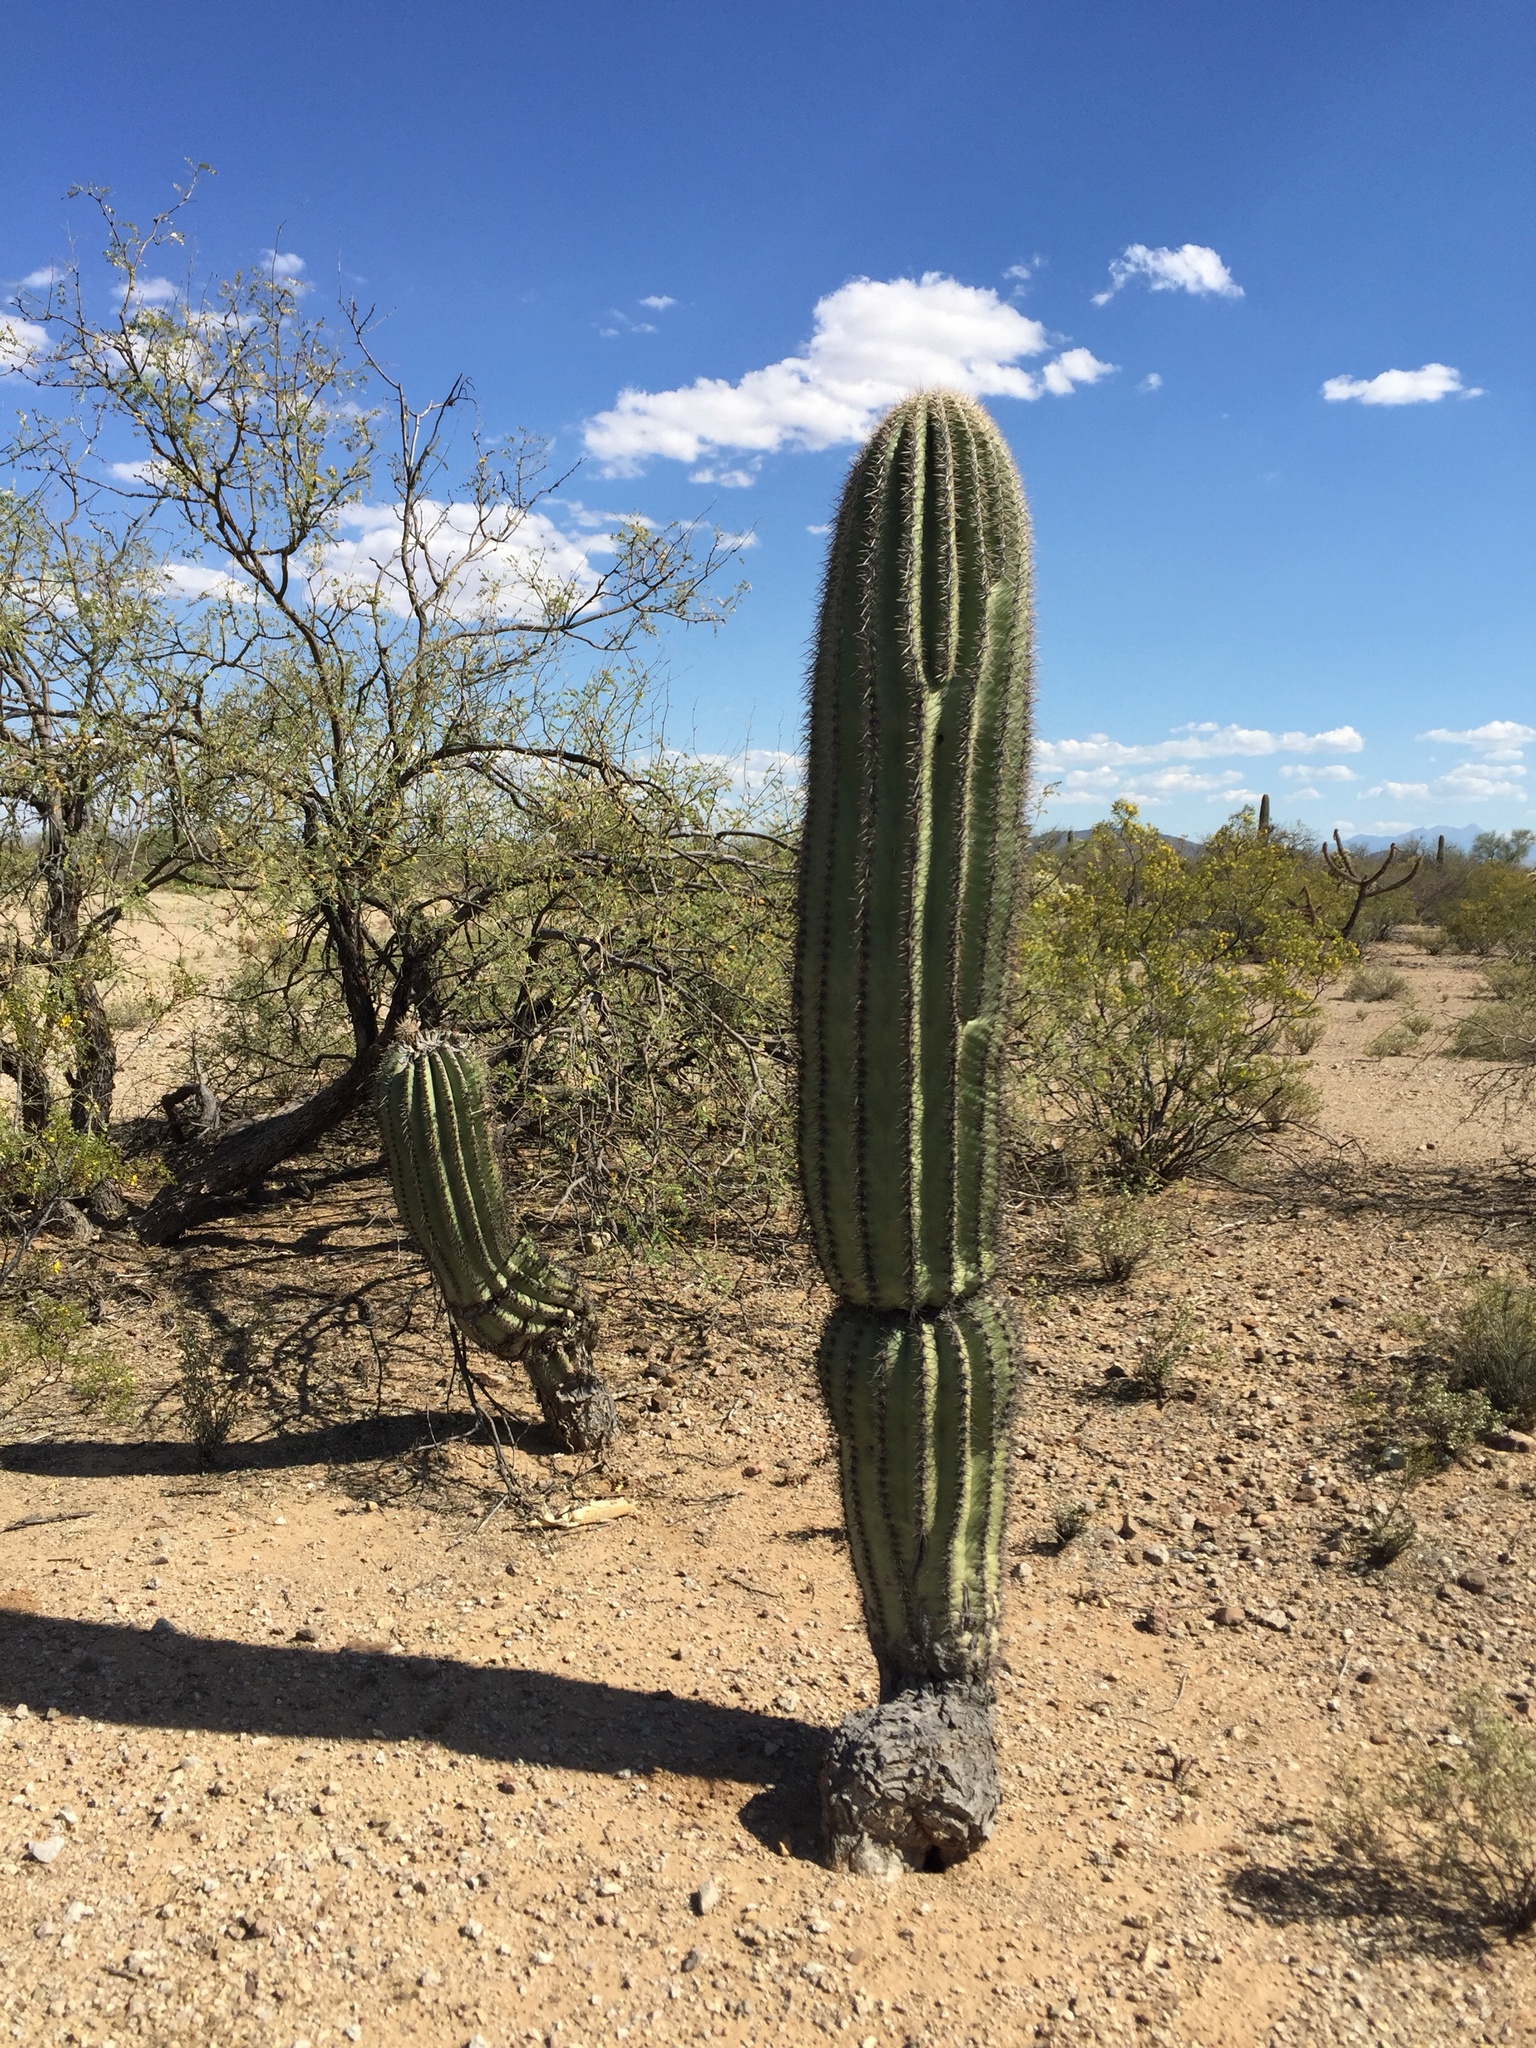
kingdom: Plantae
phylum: Tracheophyta
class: Magnoliopsida
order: Caryophyllales
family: Cactaceae
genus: Carnegiea
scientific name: Carnegiea gigantea
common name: Saguaro
